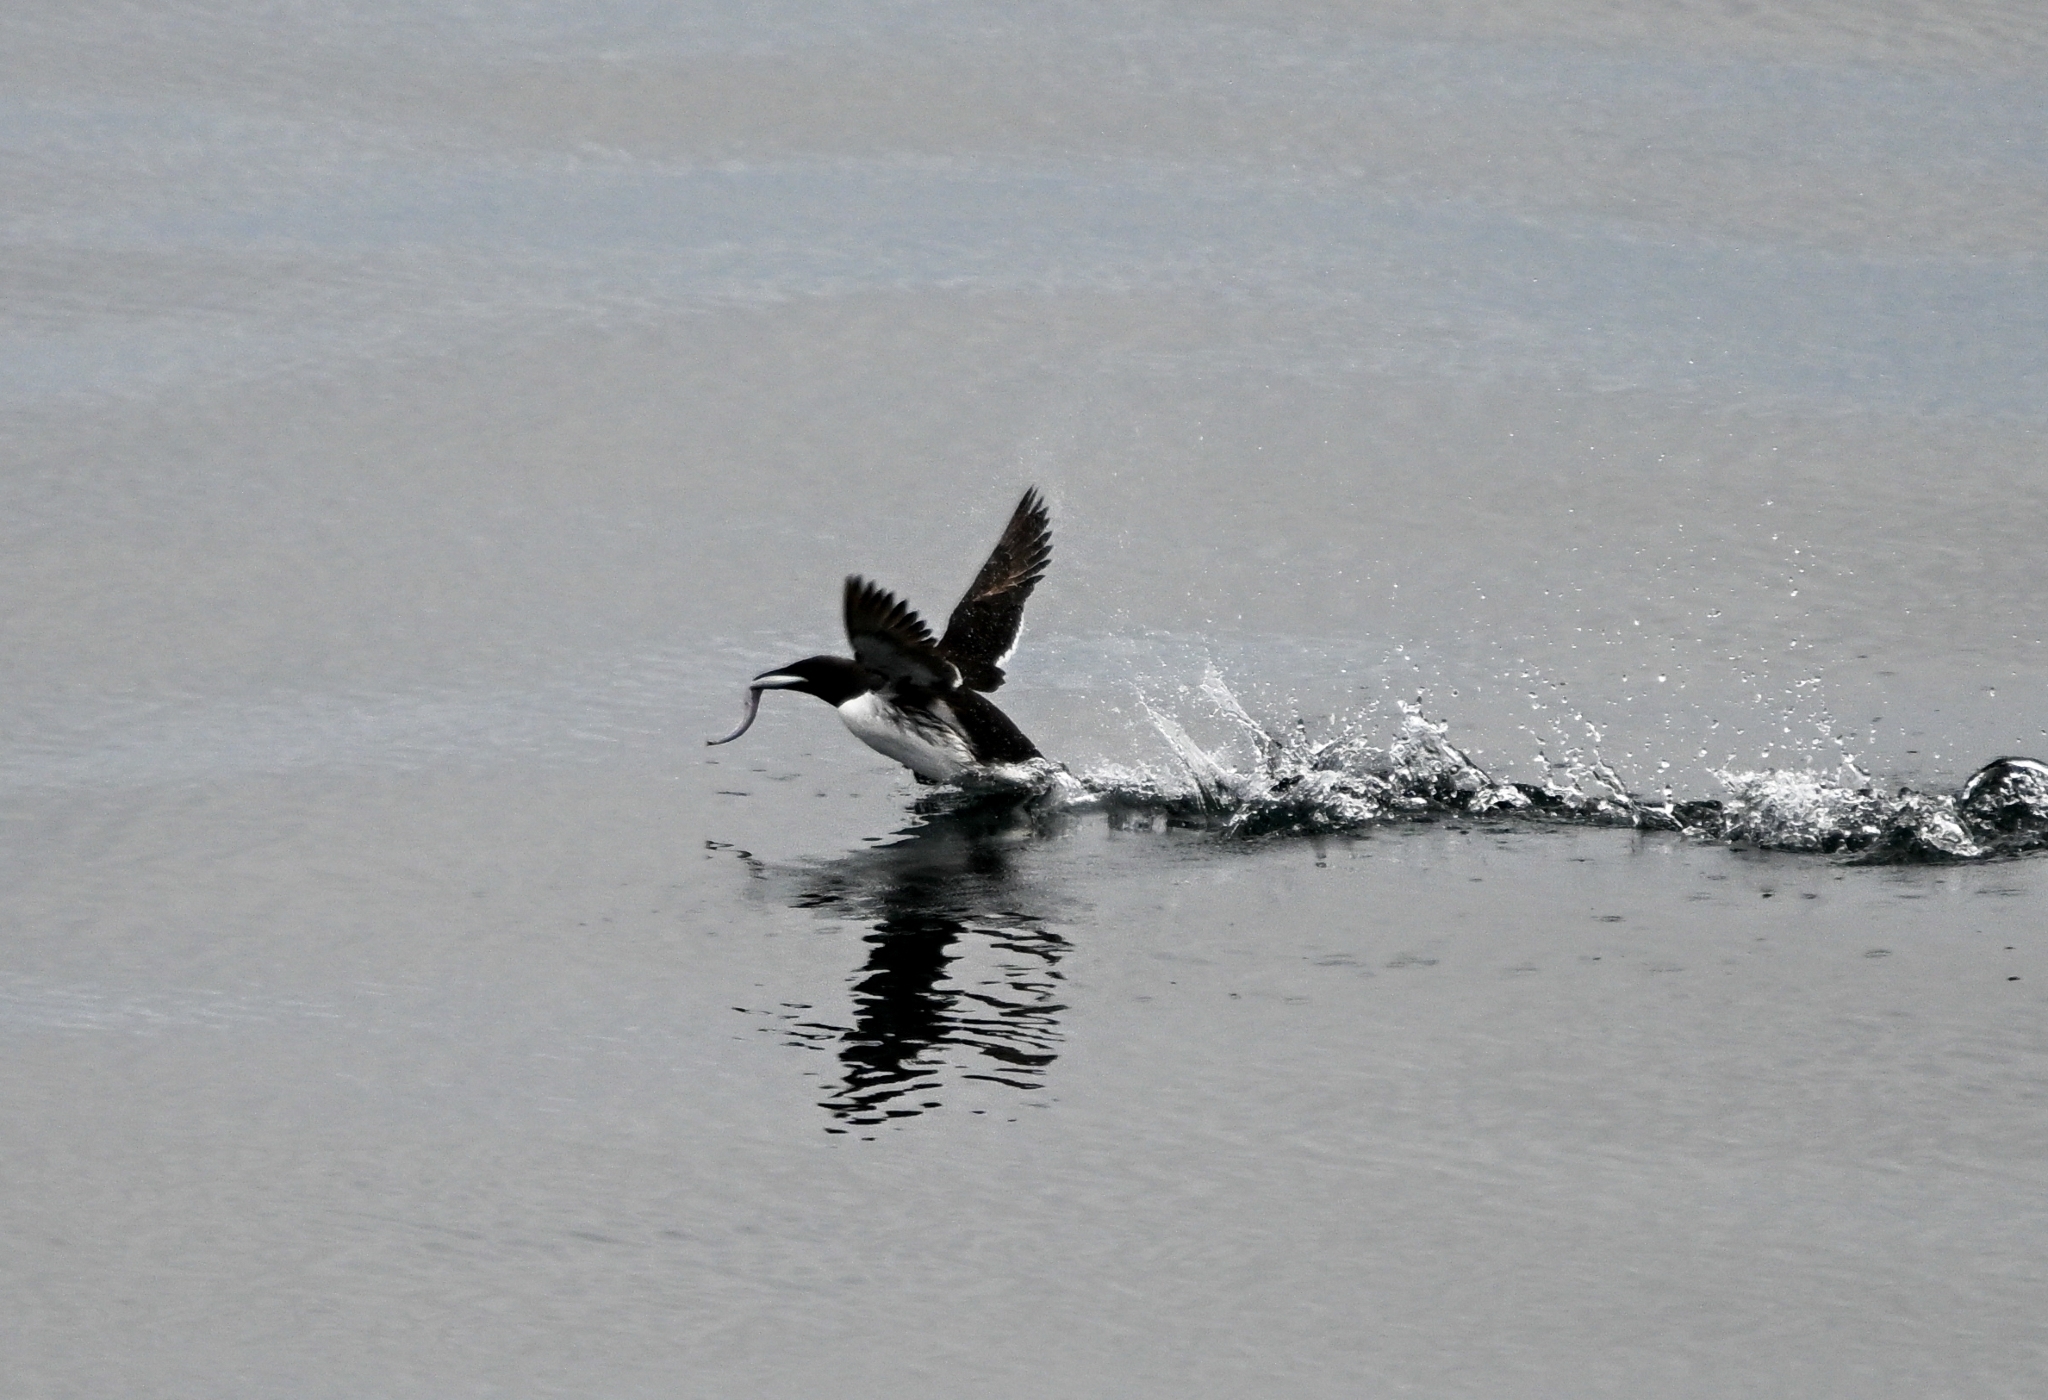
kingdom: Animalia
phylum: Chordata
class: Aves
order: Charadriiformes
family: Alcidae
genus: Uria
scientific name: Uria aalge
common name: Common murre
